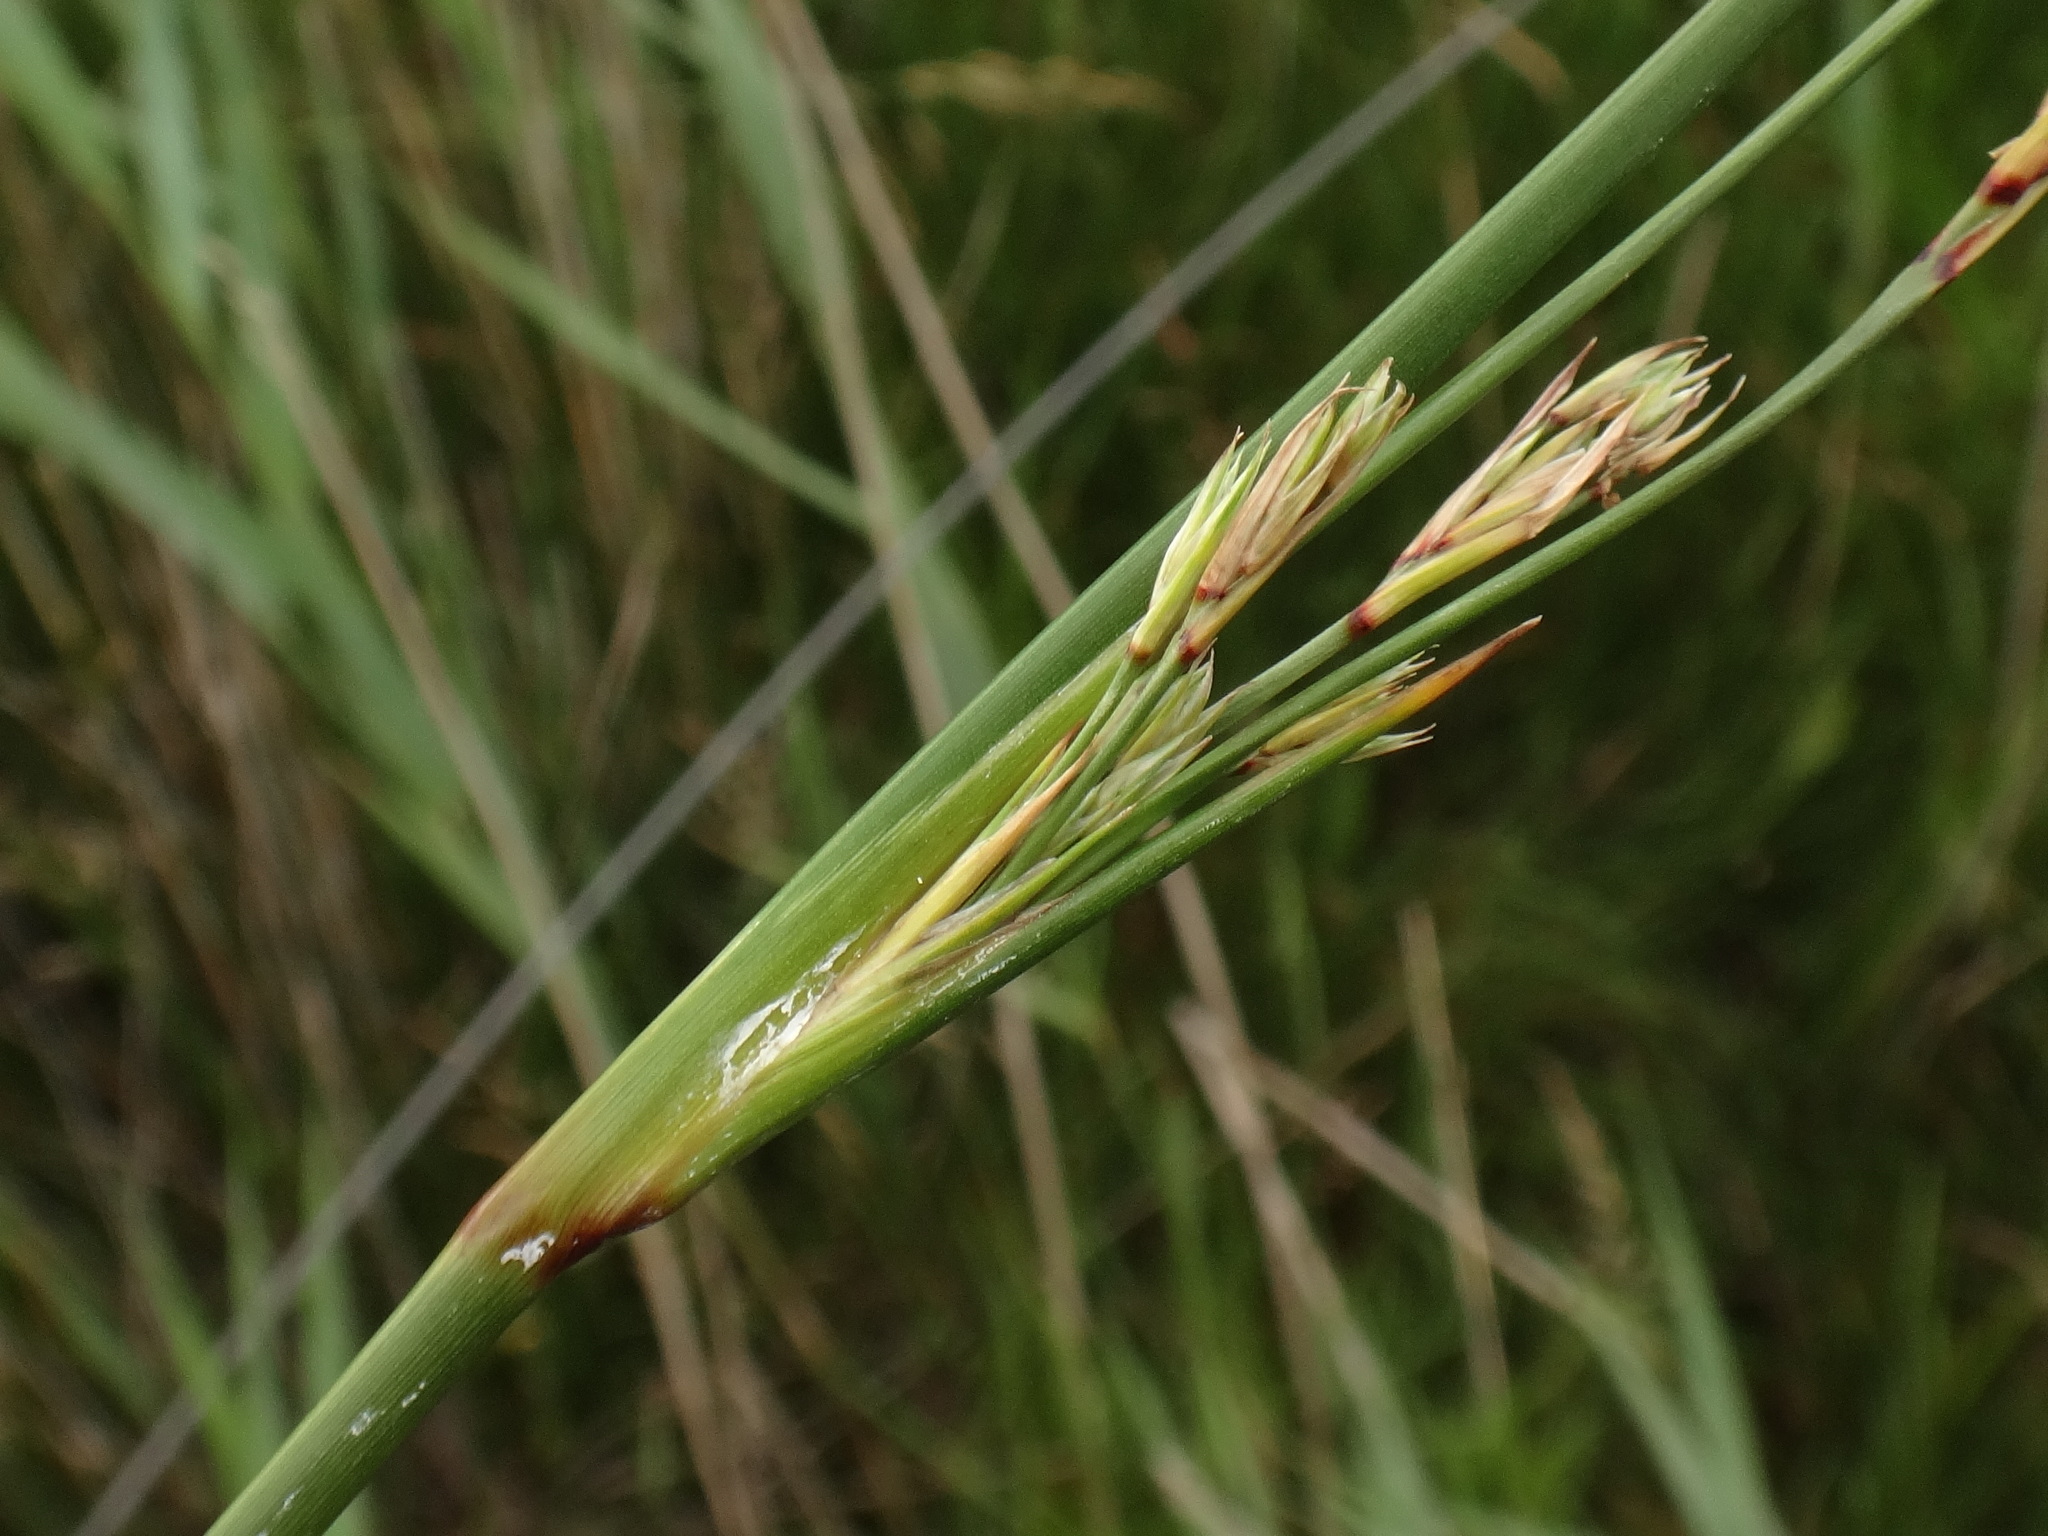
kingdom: Plantae
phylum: Tracheophyta
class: Liliopsida
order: Poales
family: Juncaceae
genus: Juncus
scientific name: Juncus maritimus
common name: Sea rush
